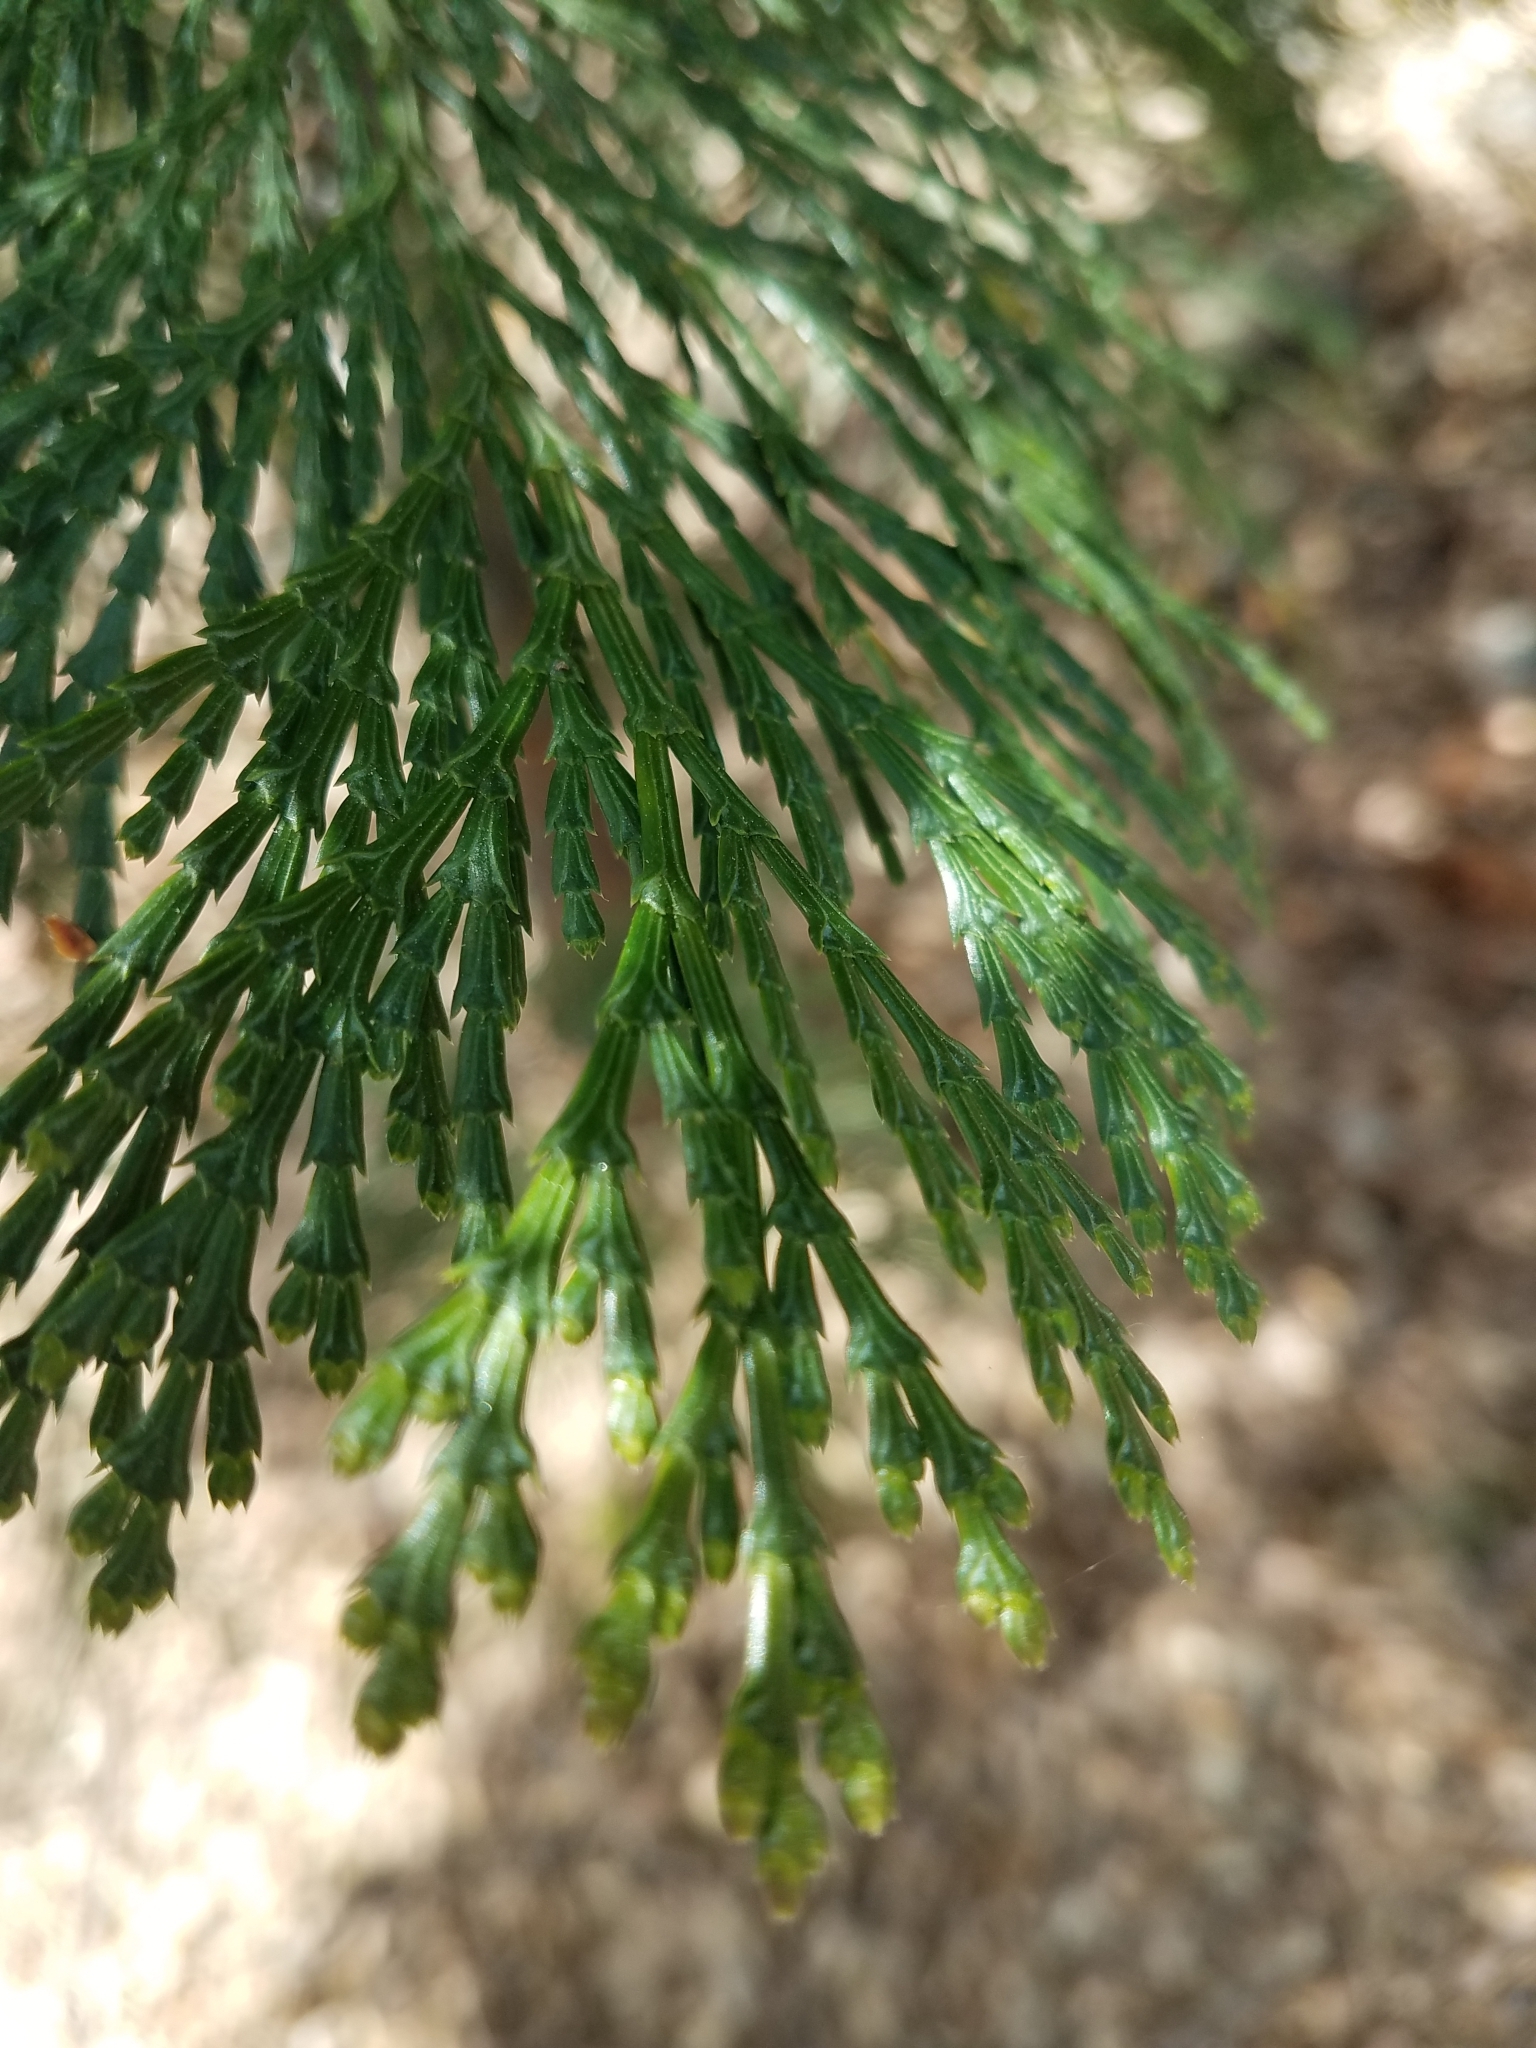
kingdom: Plantae
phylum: Tracheophyta
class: Pinopsida
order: Pinales
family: Cupressaceae
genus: Calocedrus
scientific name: Calocedrus decurrens
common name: Californian incense-cedar
